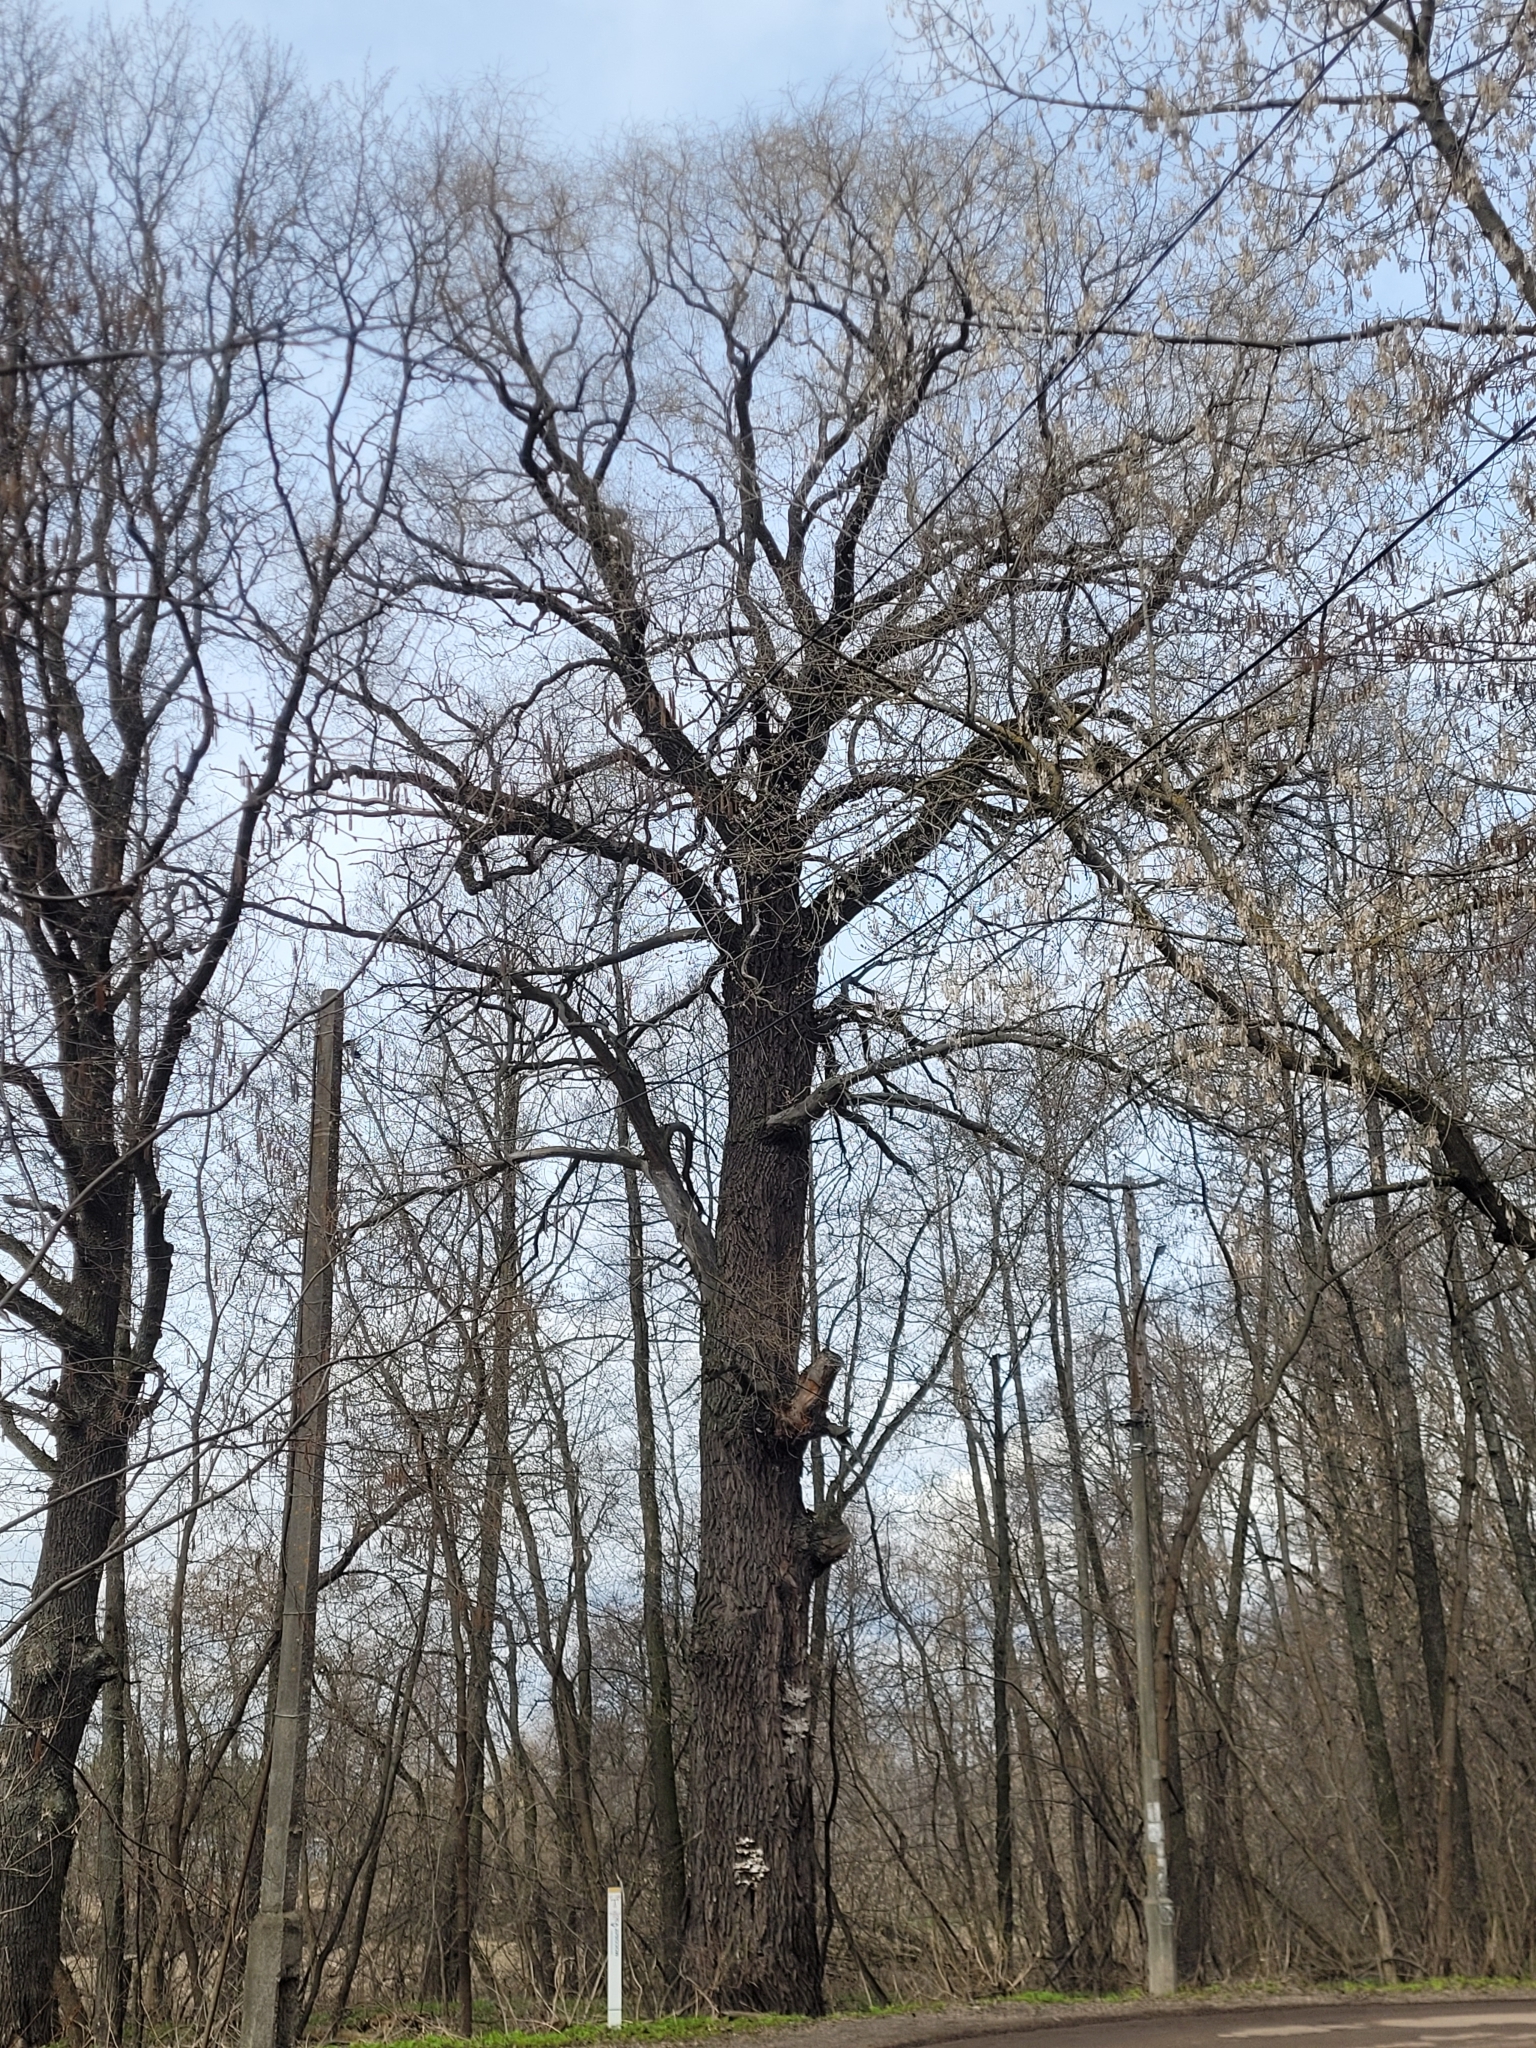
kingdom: Plantae
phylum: Tracheophyta
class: Magnoliopsida
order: Fagales
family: Fagaceae
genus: Quercus
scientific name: Quercus robur
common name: Pedunculate oak
